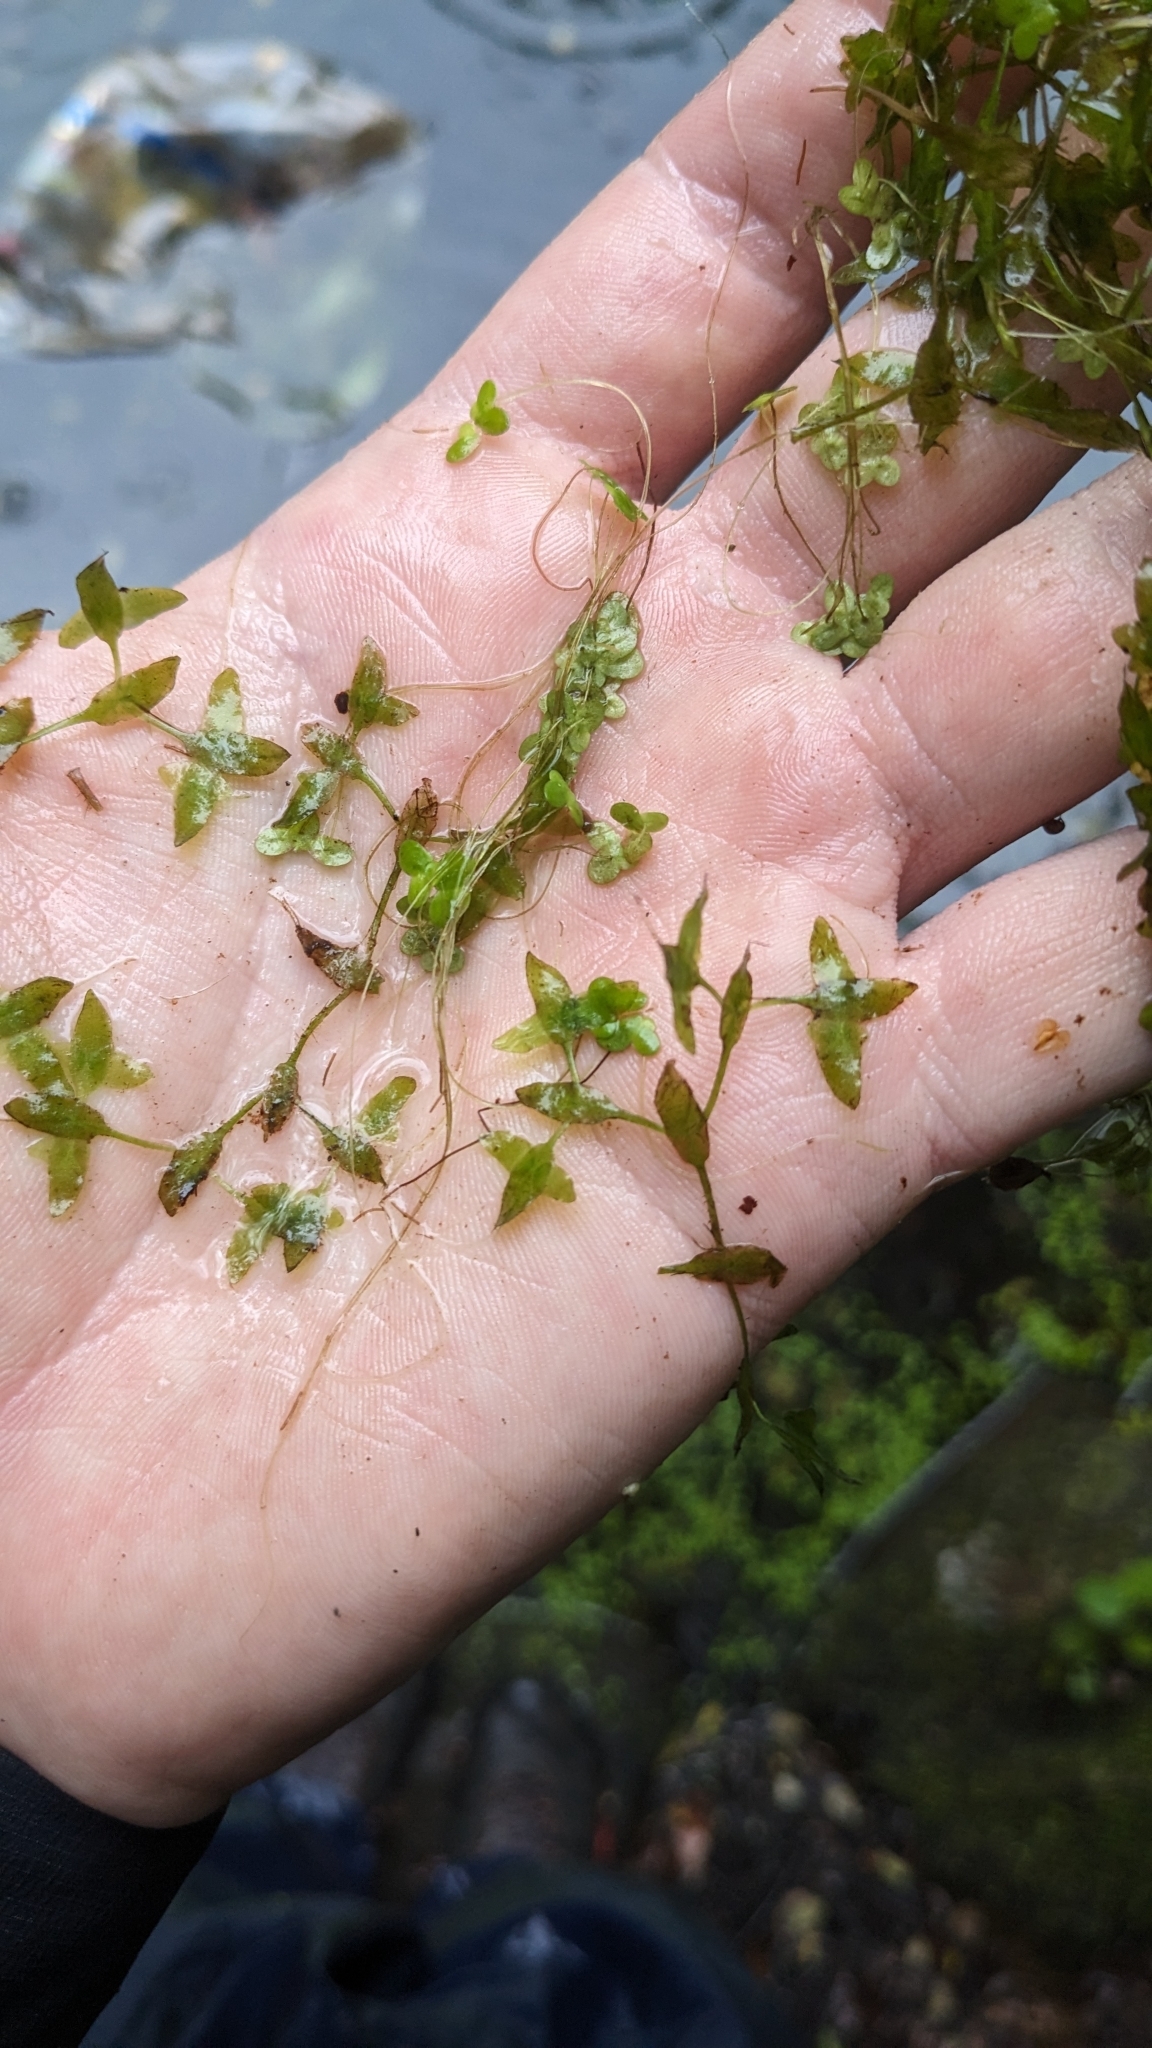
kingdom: Plantae
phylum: Tracheophyta
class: Liliopsida
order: Alismatales
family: Araceae
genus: Lemna
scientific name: Lemna trisulca
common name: Ivy-leaved duckweed
